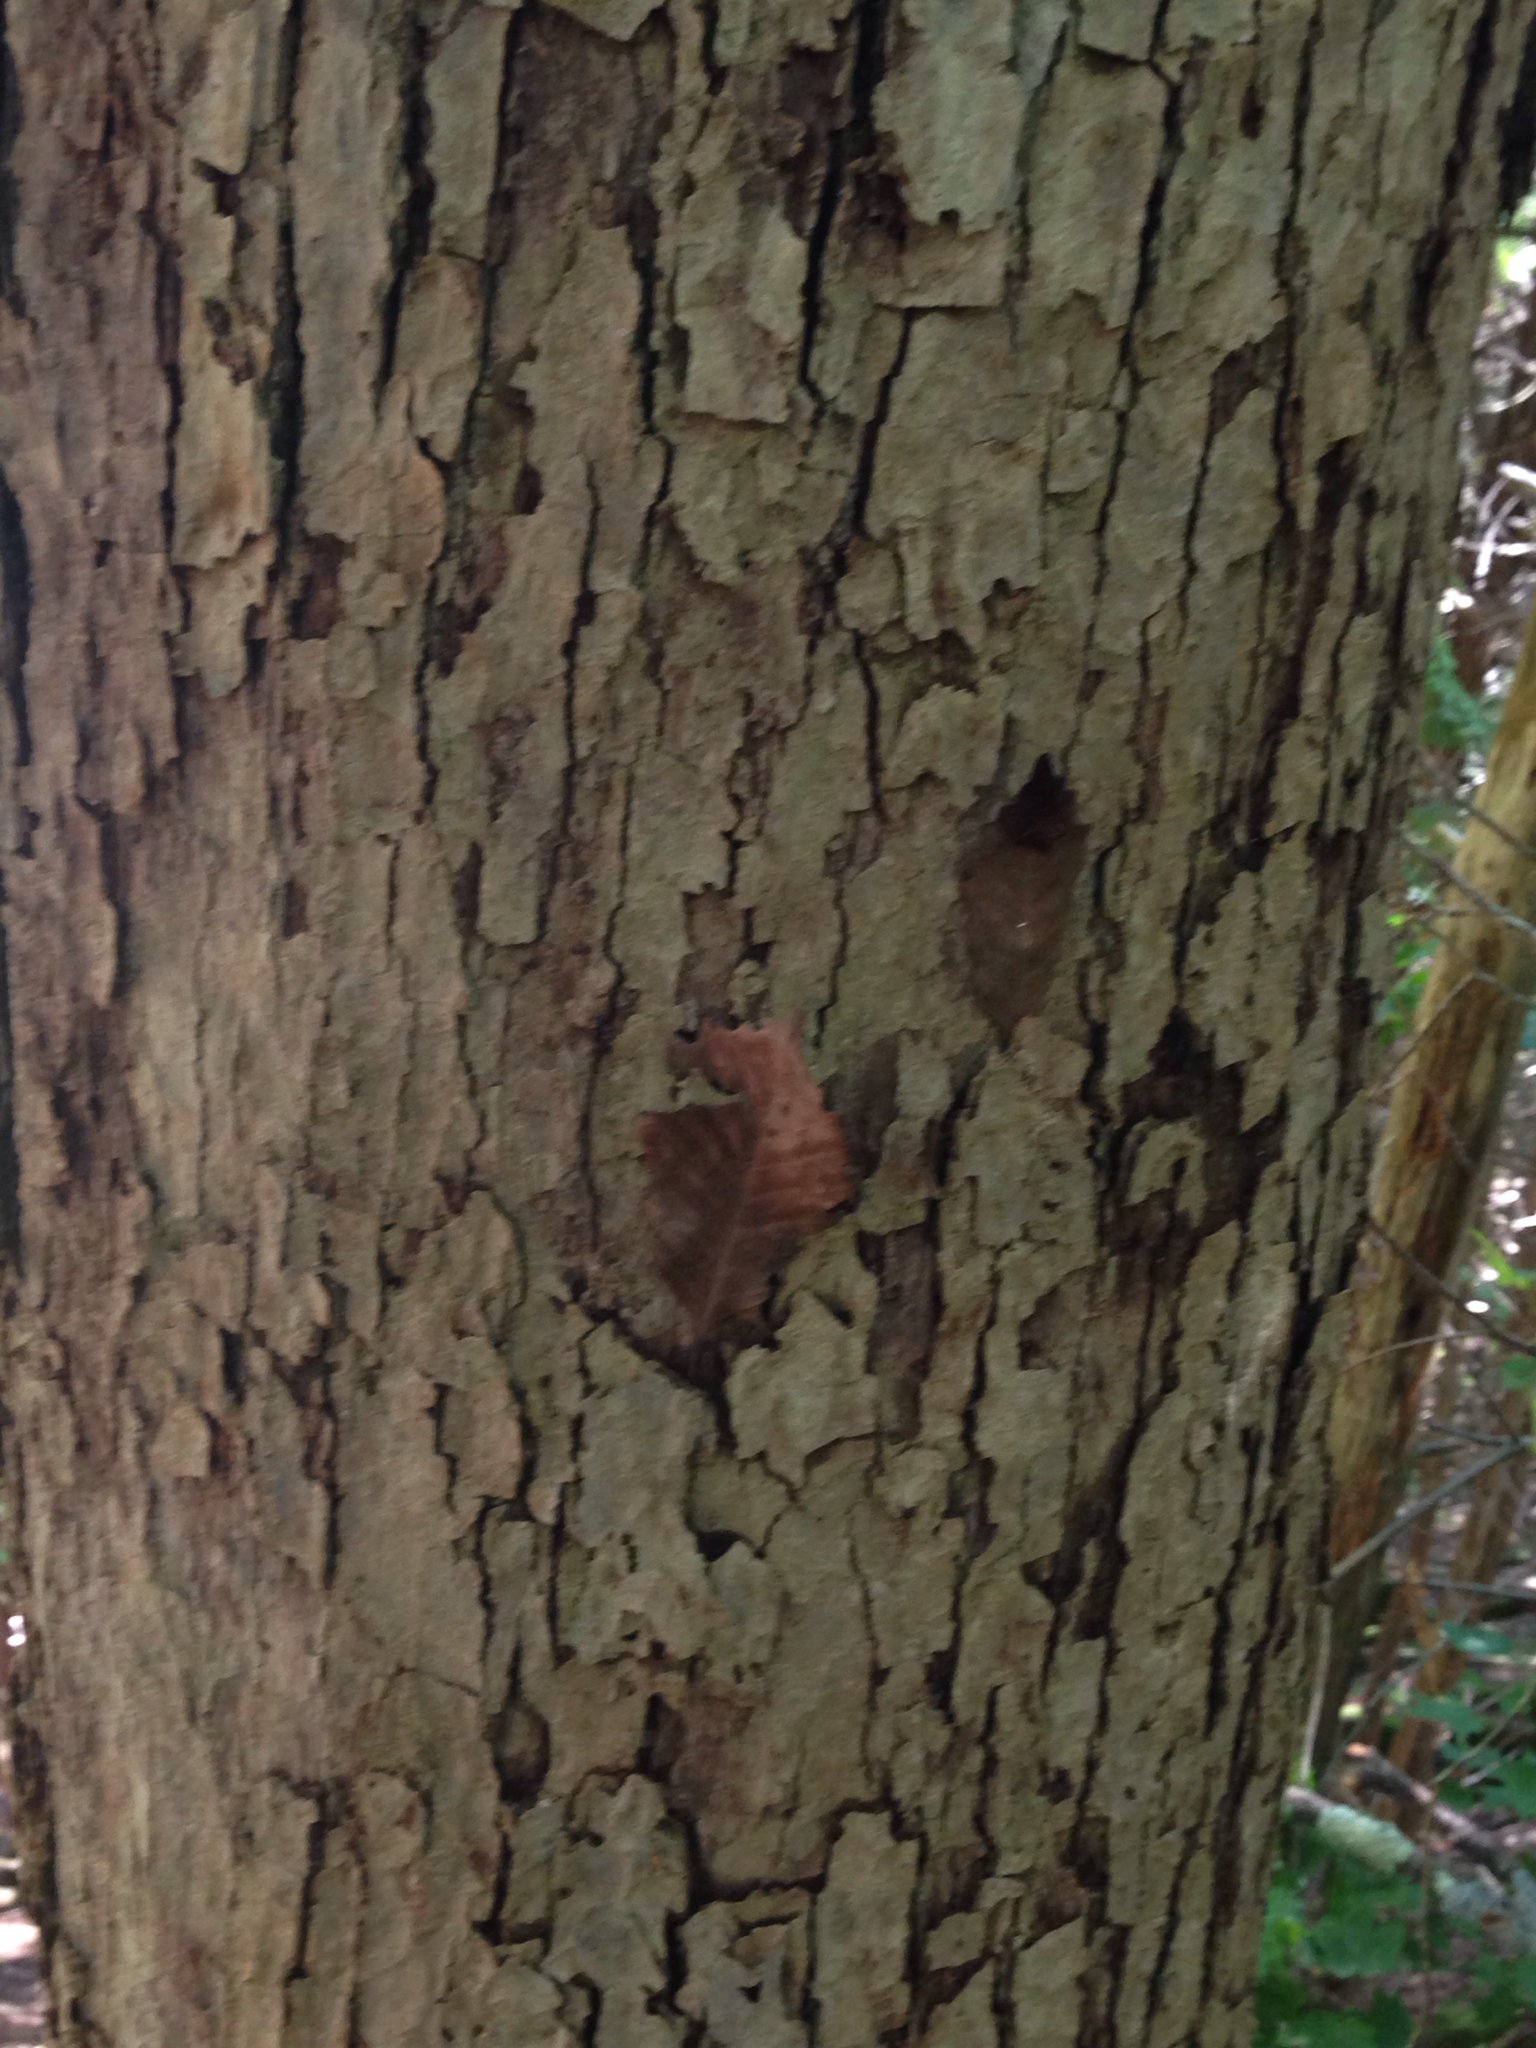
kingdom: Plantae
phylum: Tracheophyta
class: Magnoliopsida
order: Fagales
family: Fagaceae
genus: Quercus
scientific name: Quercus muehlenbergii
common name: Chinkapin oak
